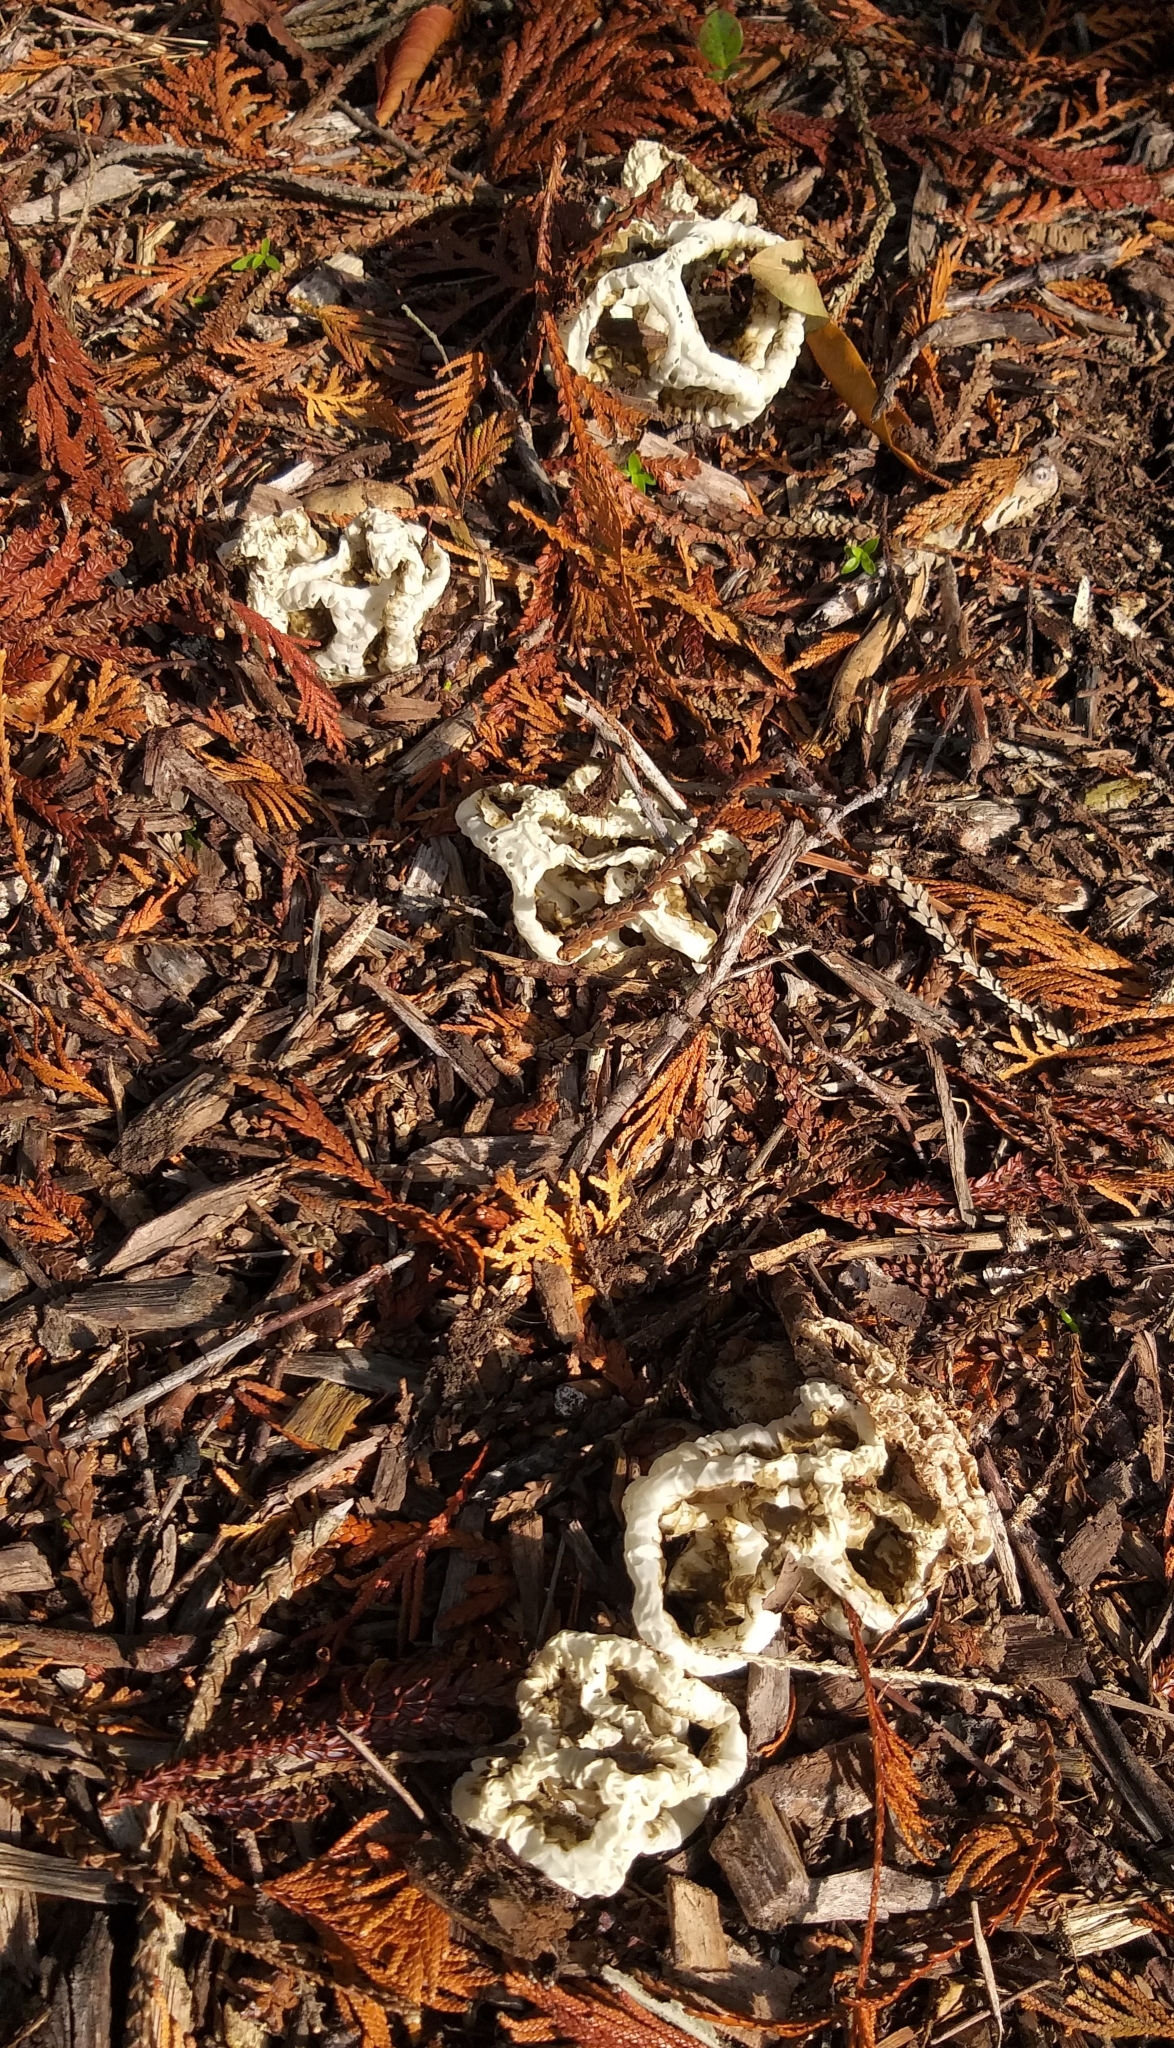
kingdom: Fungi
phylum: Basidiomycota
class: Agaricomycetes
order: Phallales
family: Phallaceae
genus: Ileodictyon
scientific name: Ileodictyon cibarium
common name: Basket fungus
